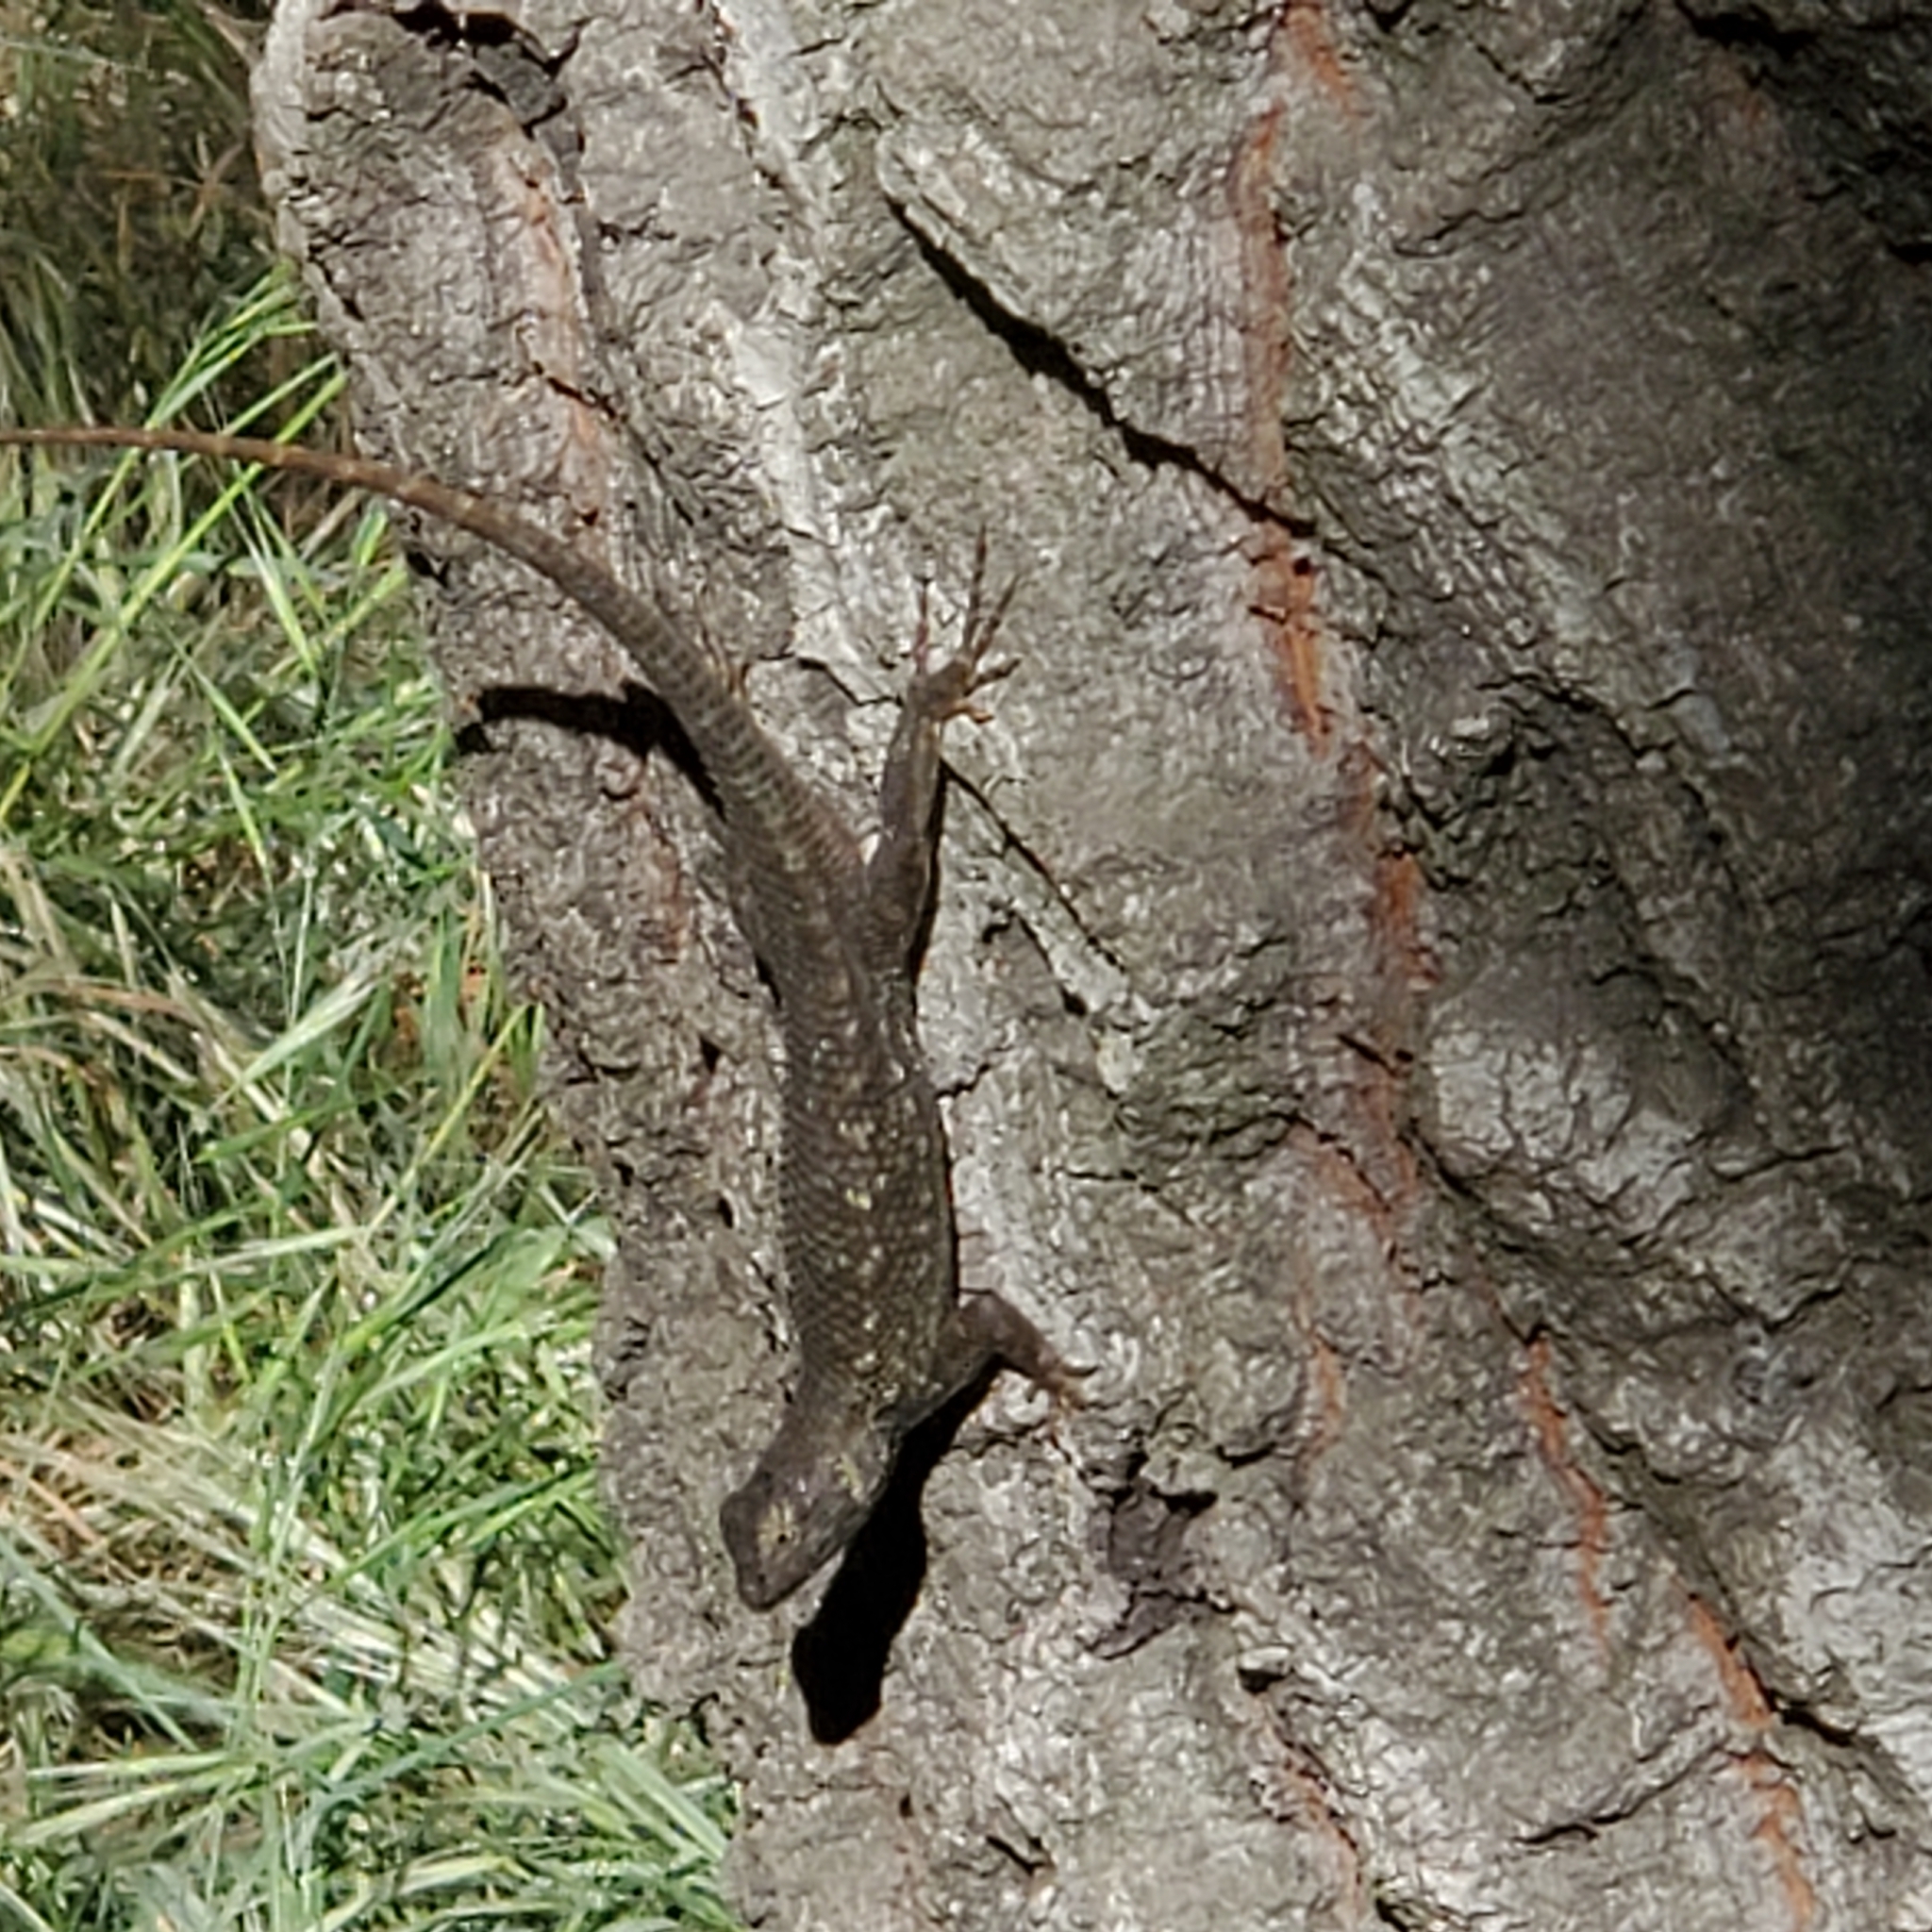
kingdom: Animalia
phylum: Chordata
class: Squamata
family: Phrynosomatidae
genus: Sceloporus
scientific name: Sceloporus occidentalis
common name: Western fence lizard
